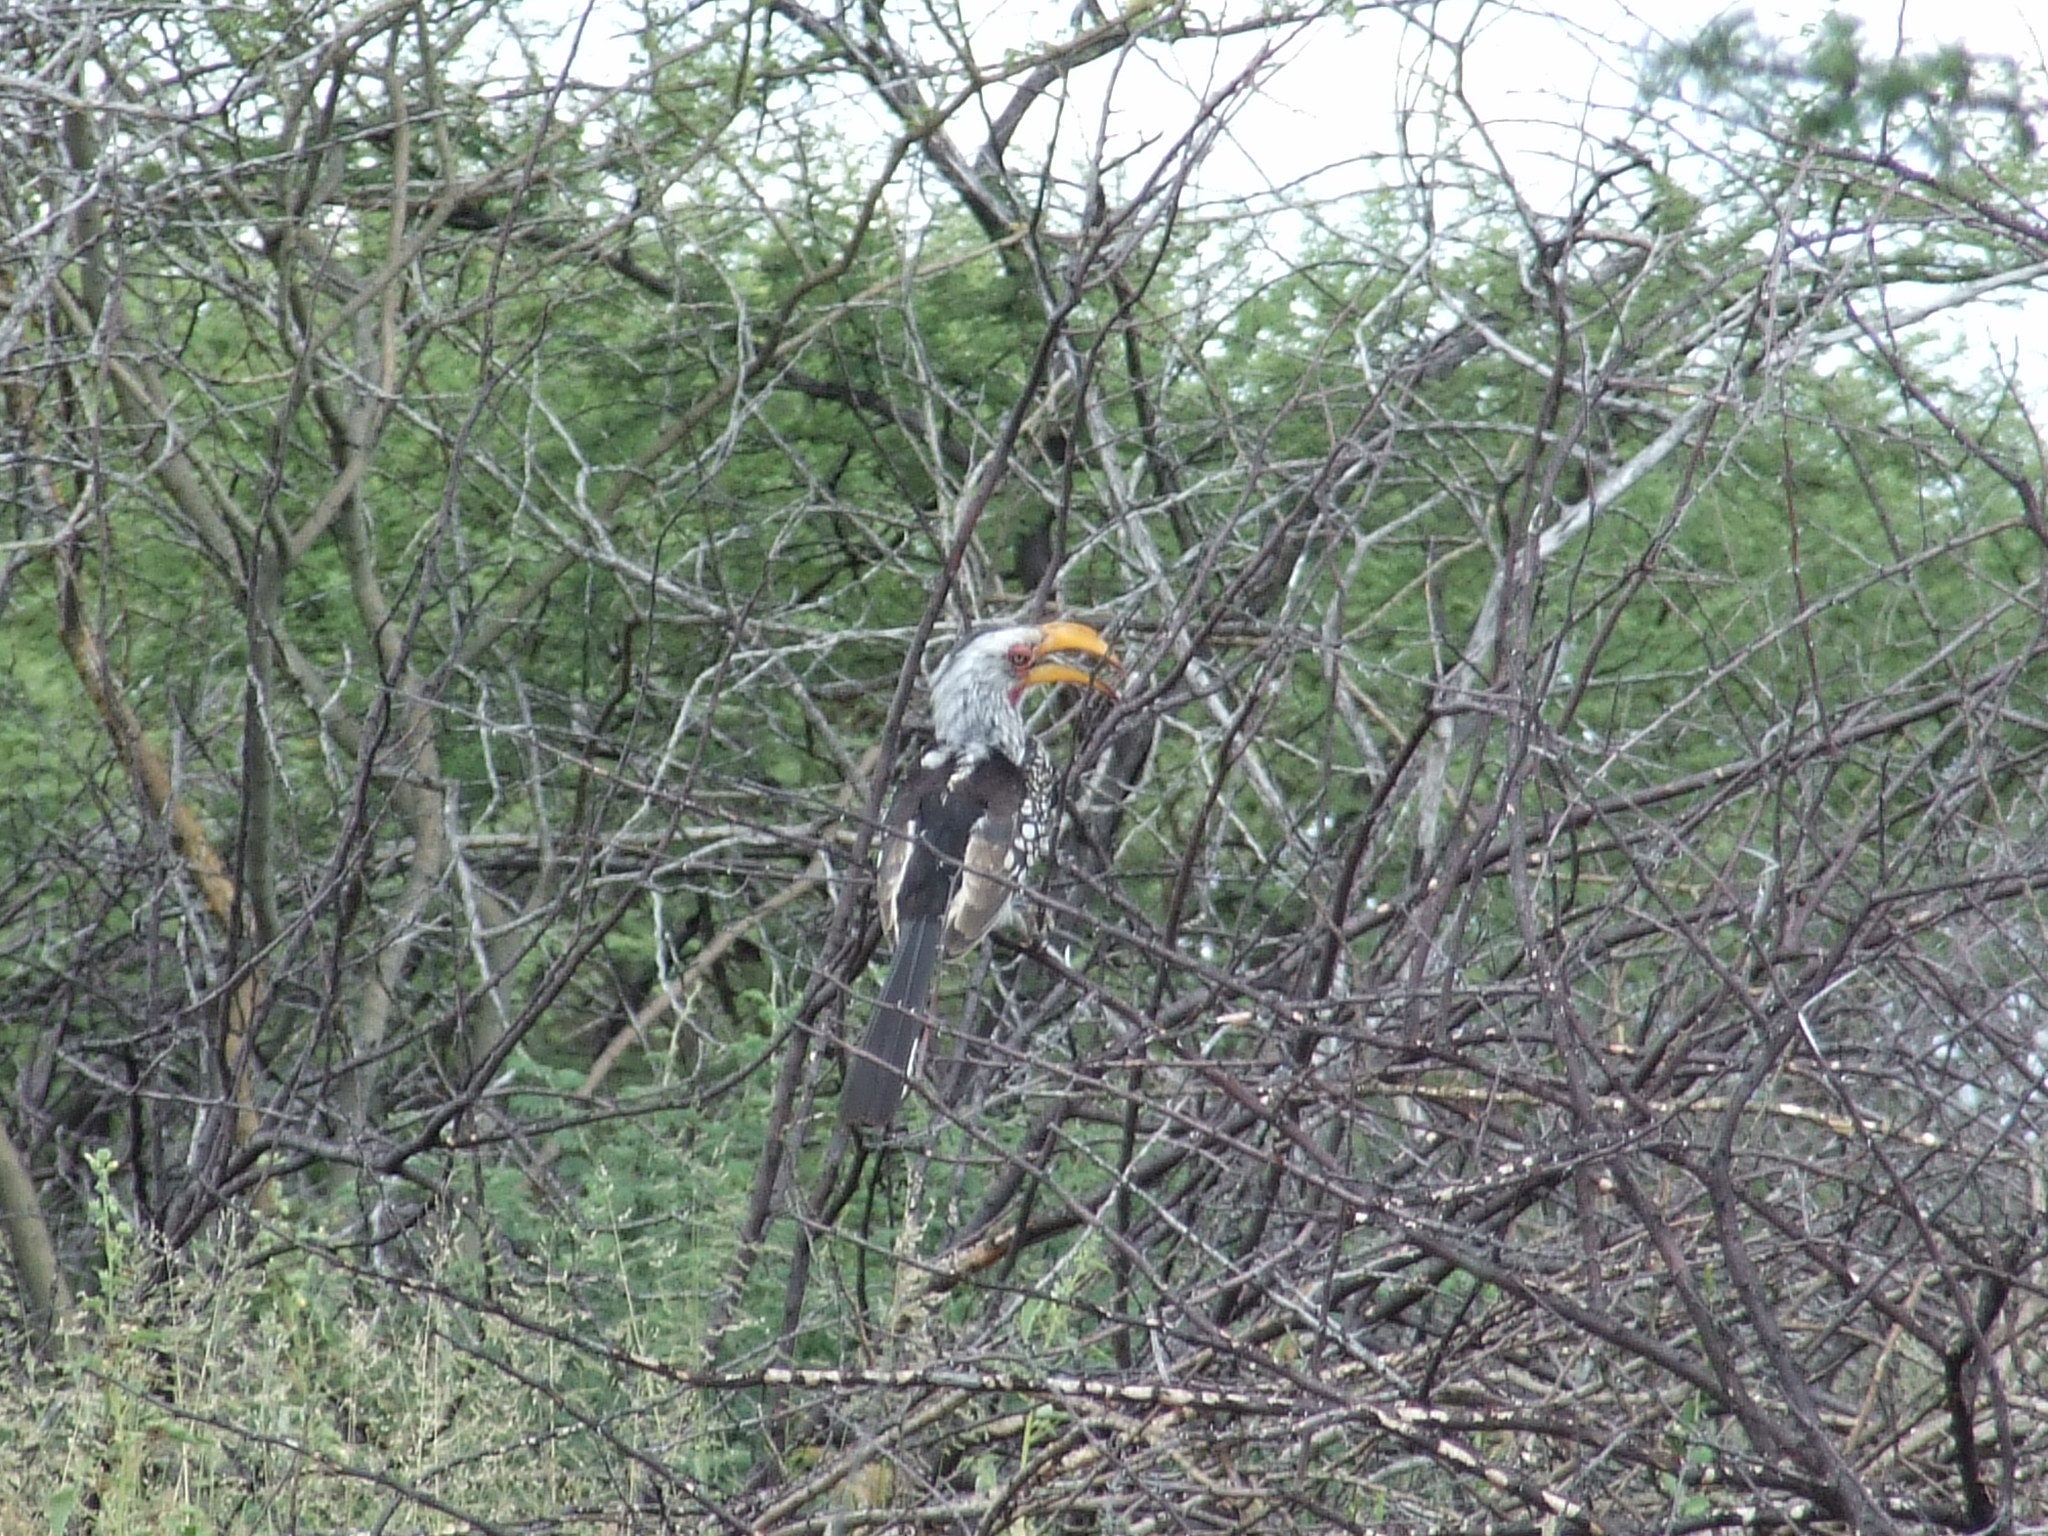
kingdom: Animalia
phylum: Chordata
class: Aves
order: Bucerotiformes
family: Bucerotidae
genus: Tockus
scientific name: Tockus leucomelas
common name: Southern yellow-billed hornbill
